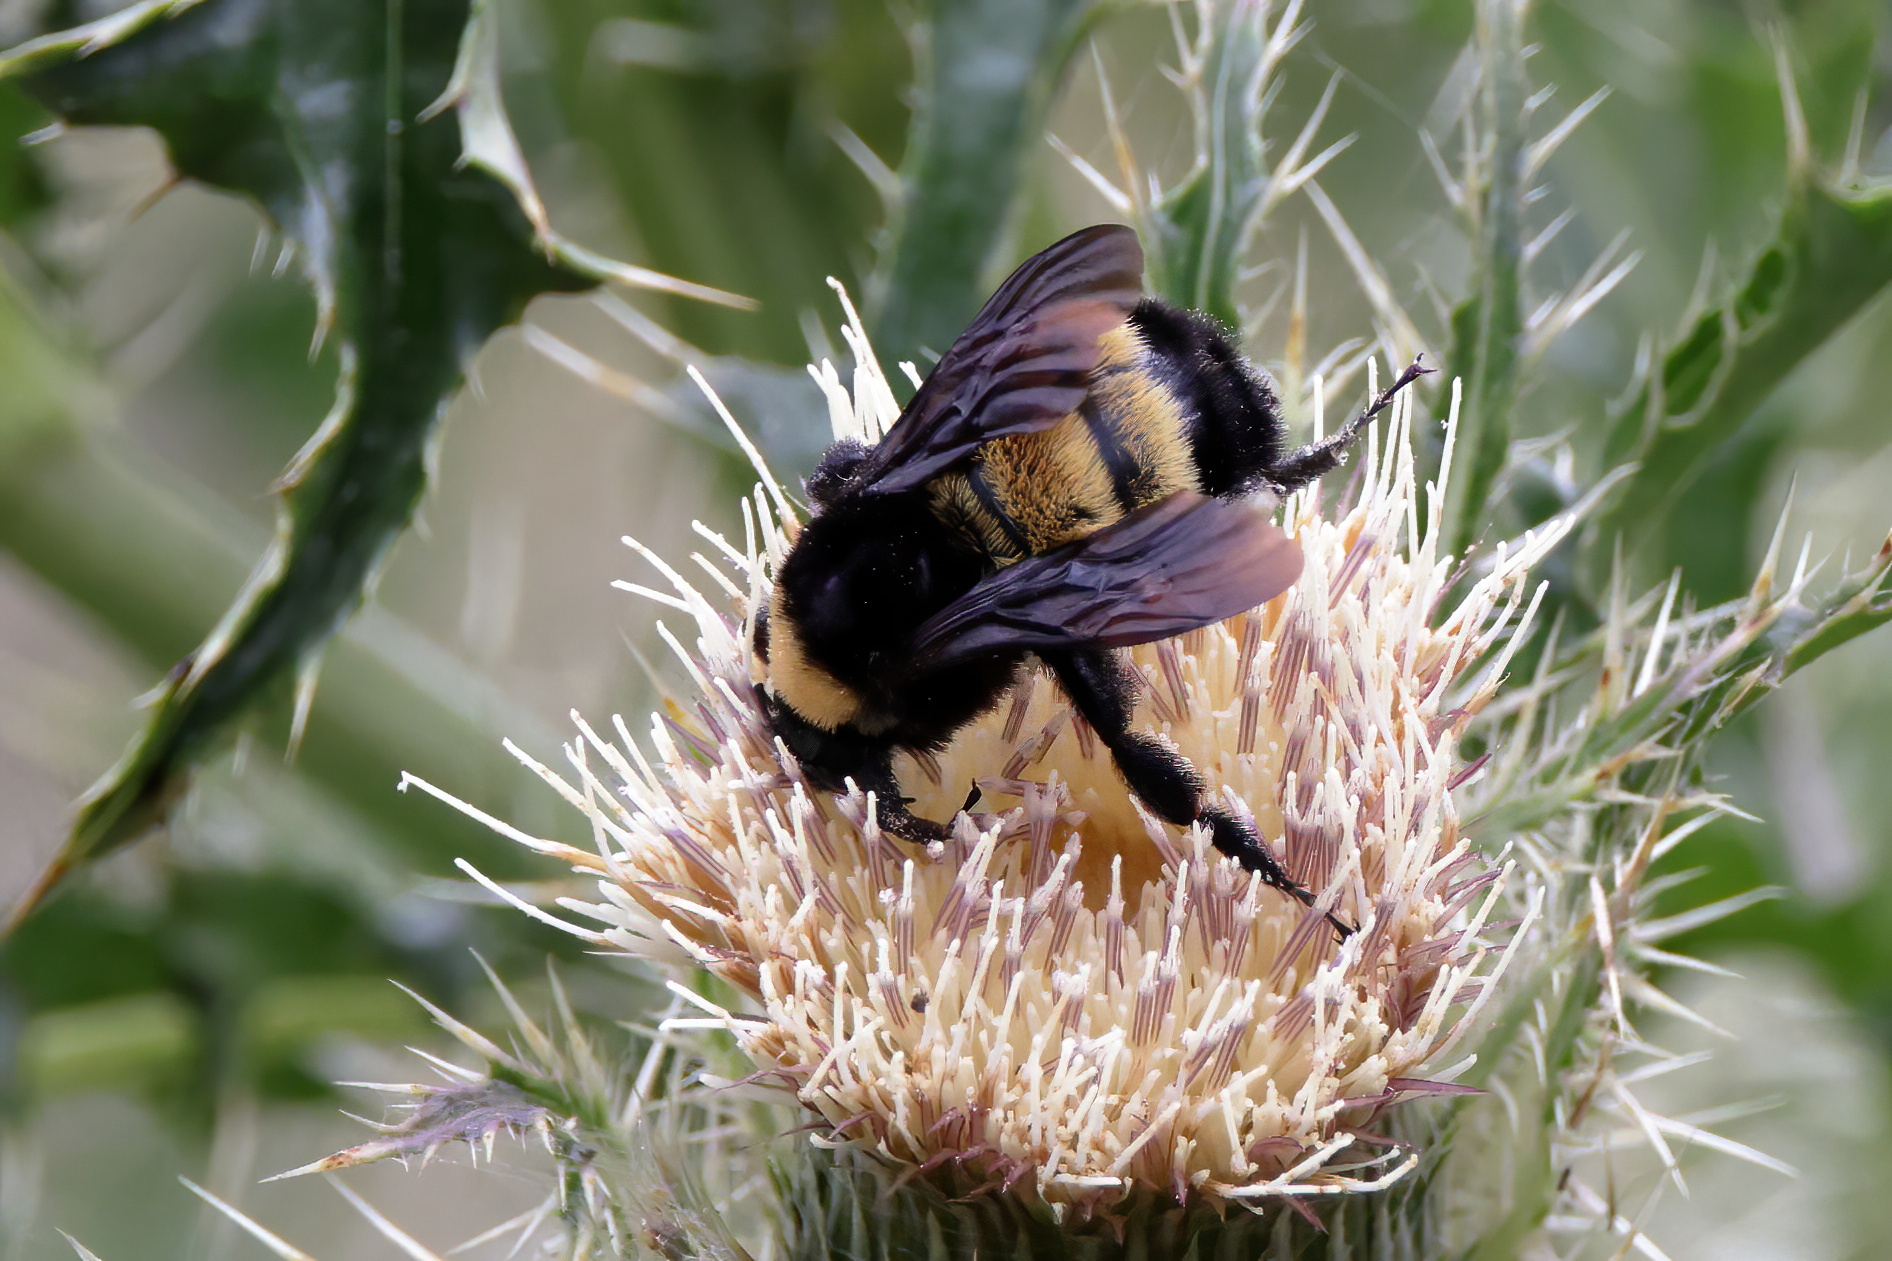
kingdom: Animalia
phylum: Arthropoda
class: Insecta
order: Hymenoptera
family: Apidae
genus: Bombus
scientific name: Bombus pensylvanicus
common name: Bumble bee
